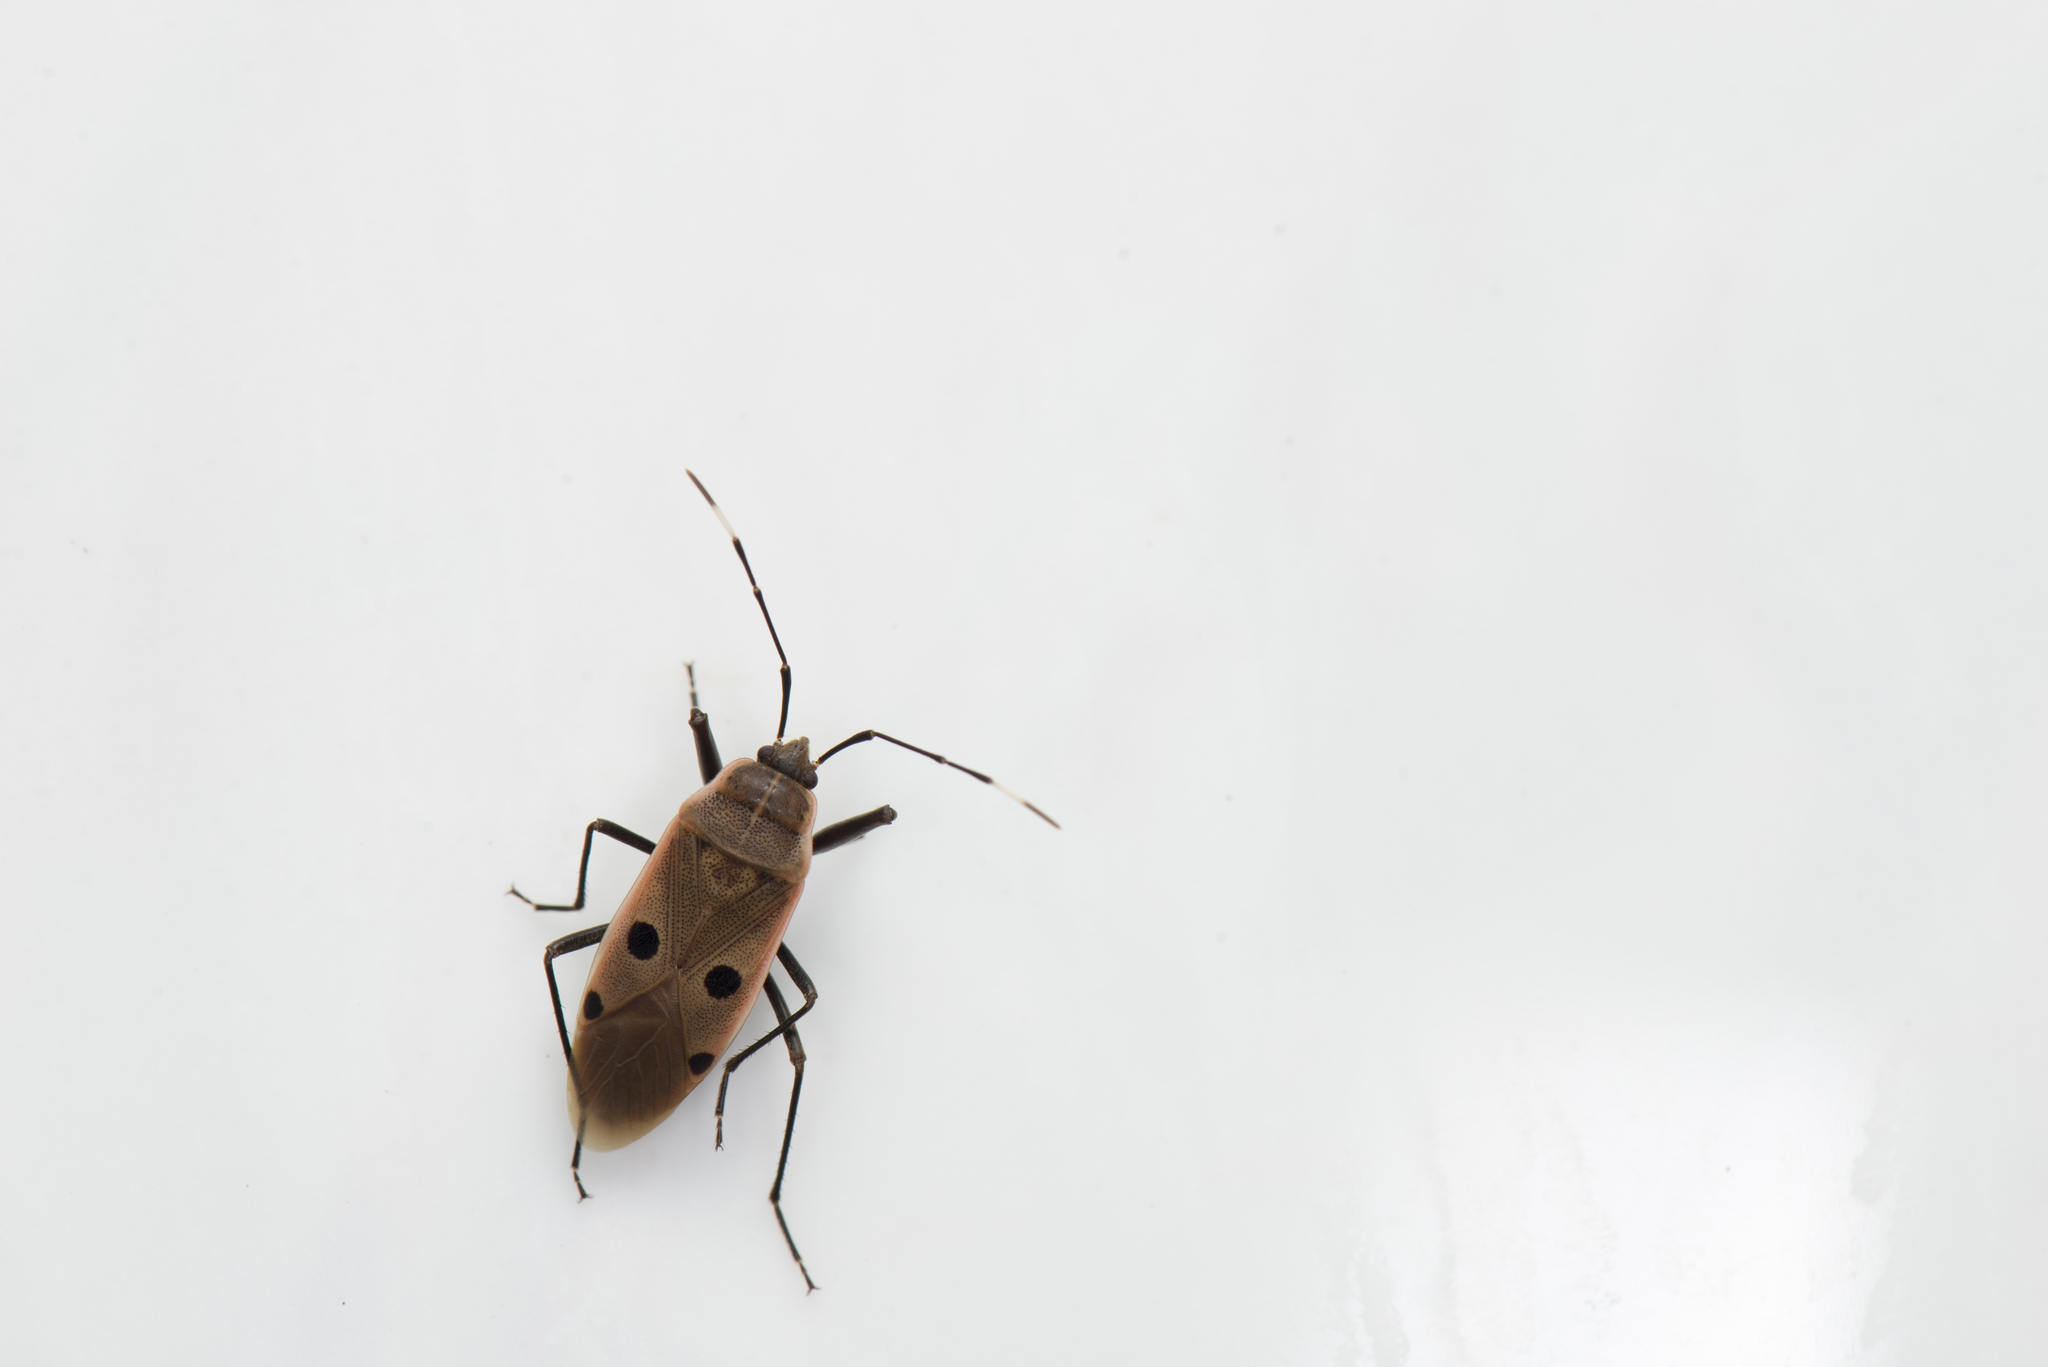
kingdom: Animalia
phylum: Arthropoda
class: Insecta
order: Hemiptera
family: Largidae
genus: Physopelta
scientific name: Physopelta quadriguttata
